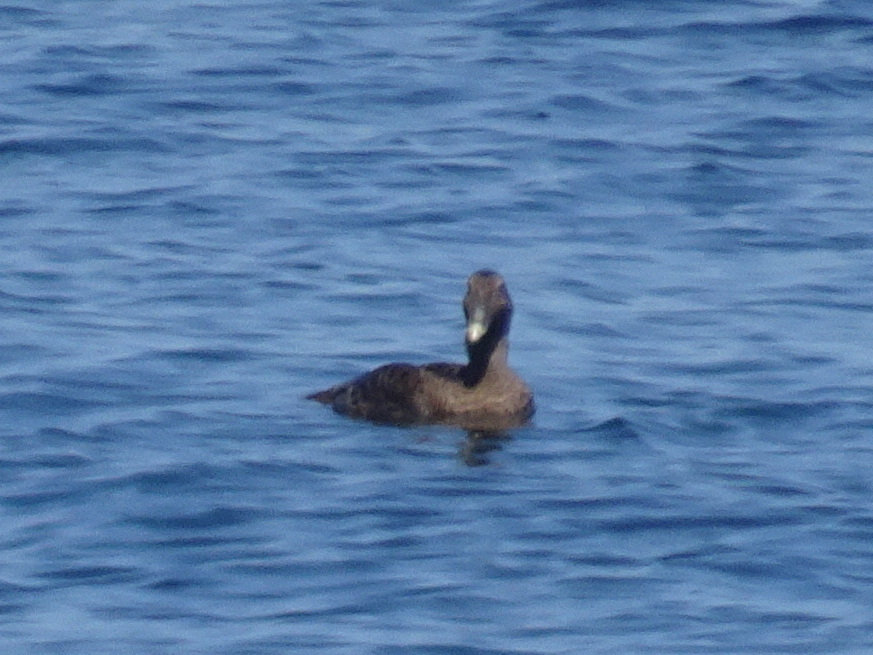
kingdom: Animalia
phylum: Chordata
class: Aves
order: Anseriformes
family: Anatidae
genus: Somateria
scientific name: Somateria mollissima
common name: Common eider
